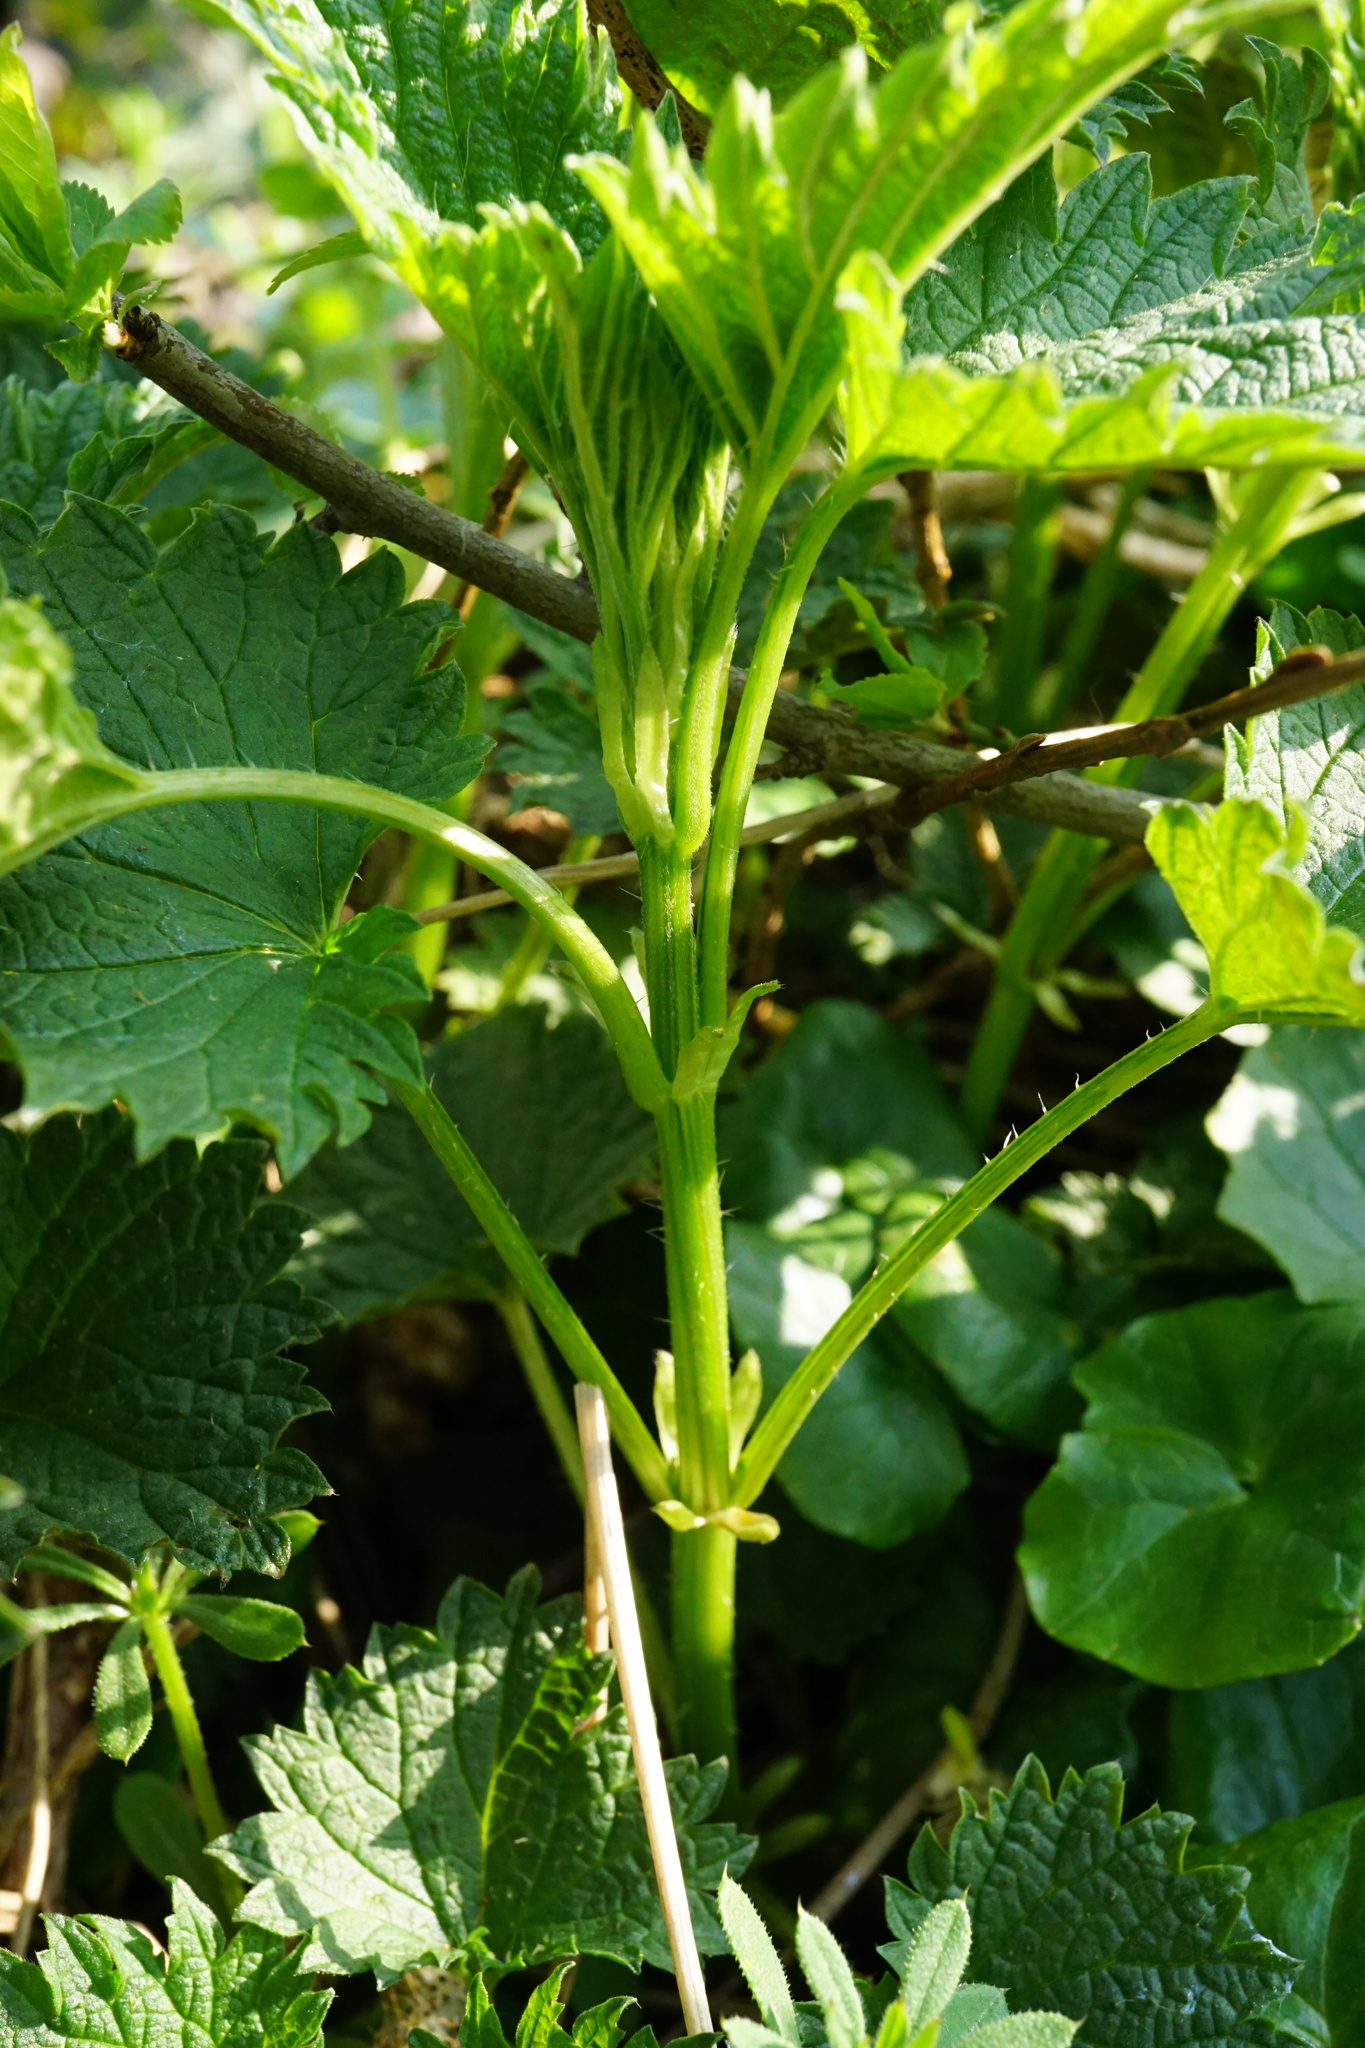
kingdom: Plantae
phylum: Tracheophyta
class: Magnoliopsida
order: Rosales
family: Urticaceae
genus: Urtica
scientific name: Urtica dioica
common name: Common nettle
